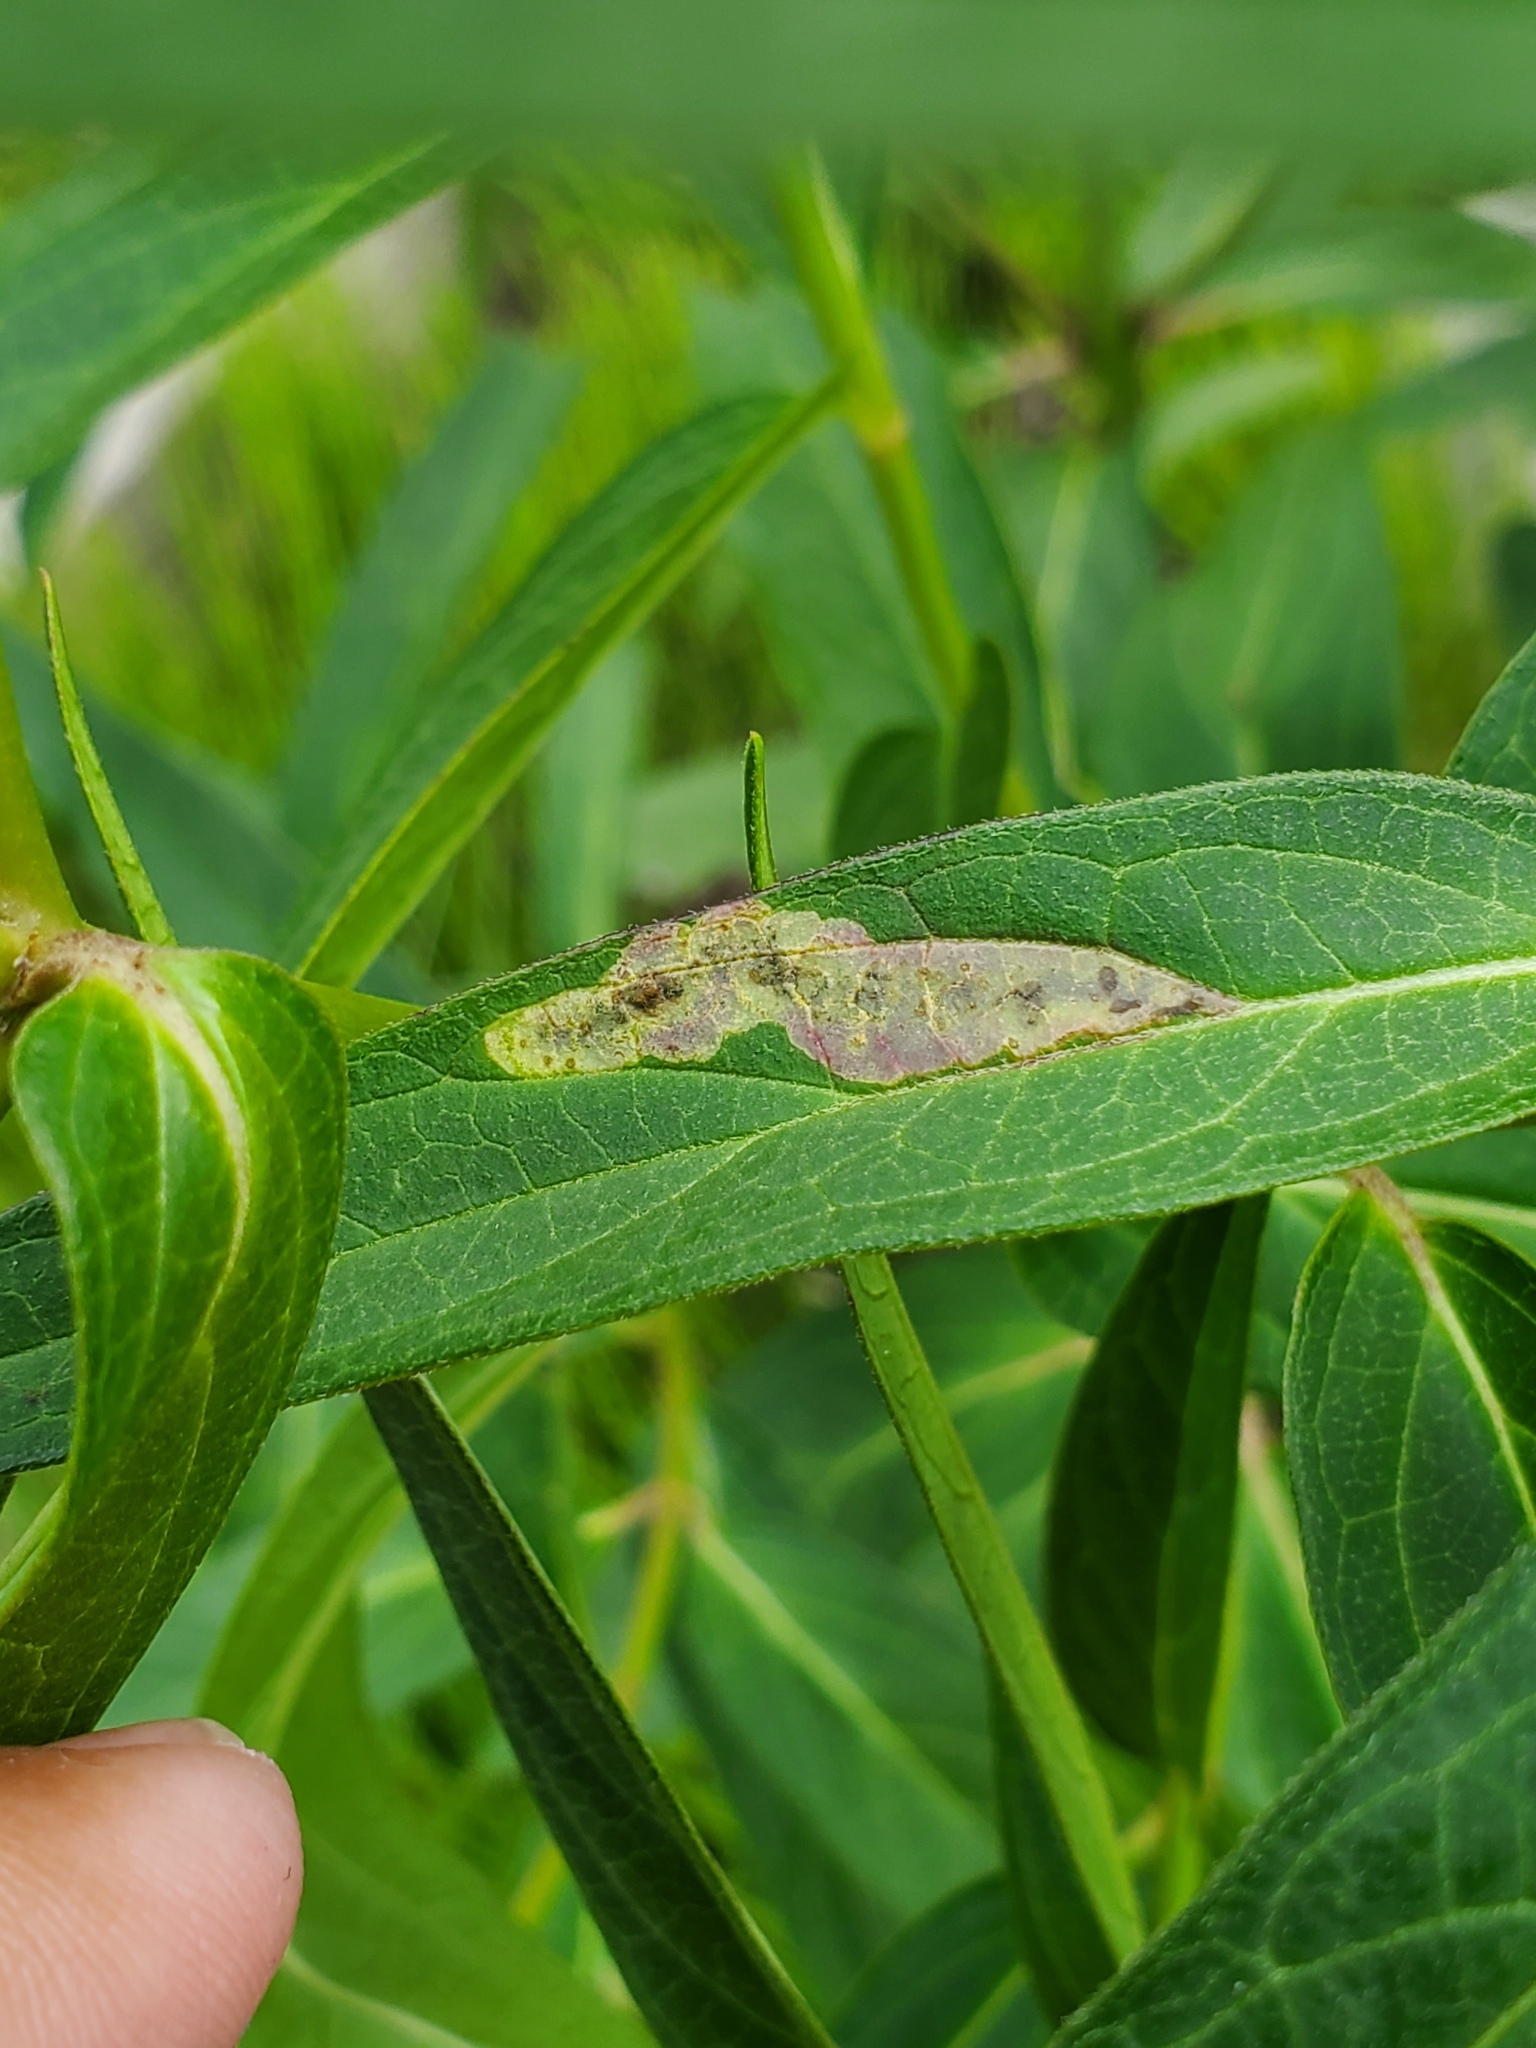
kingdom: Animalia
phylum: Arthropoda
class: Insecta
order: Diptera
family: Agromyzidae
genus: Liriomyza
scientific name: Liriomyza asclepiadis
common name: Milkweed leaf-miner fly
